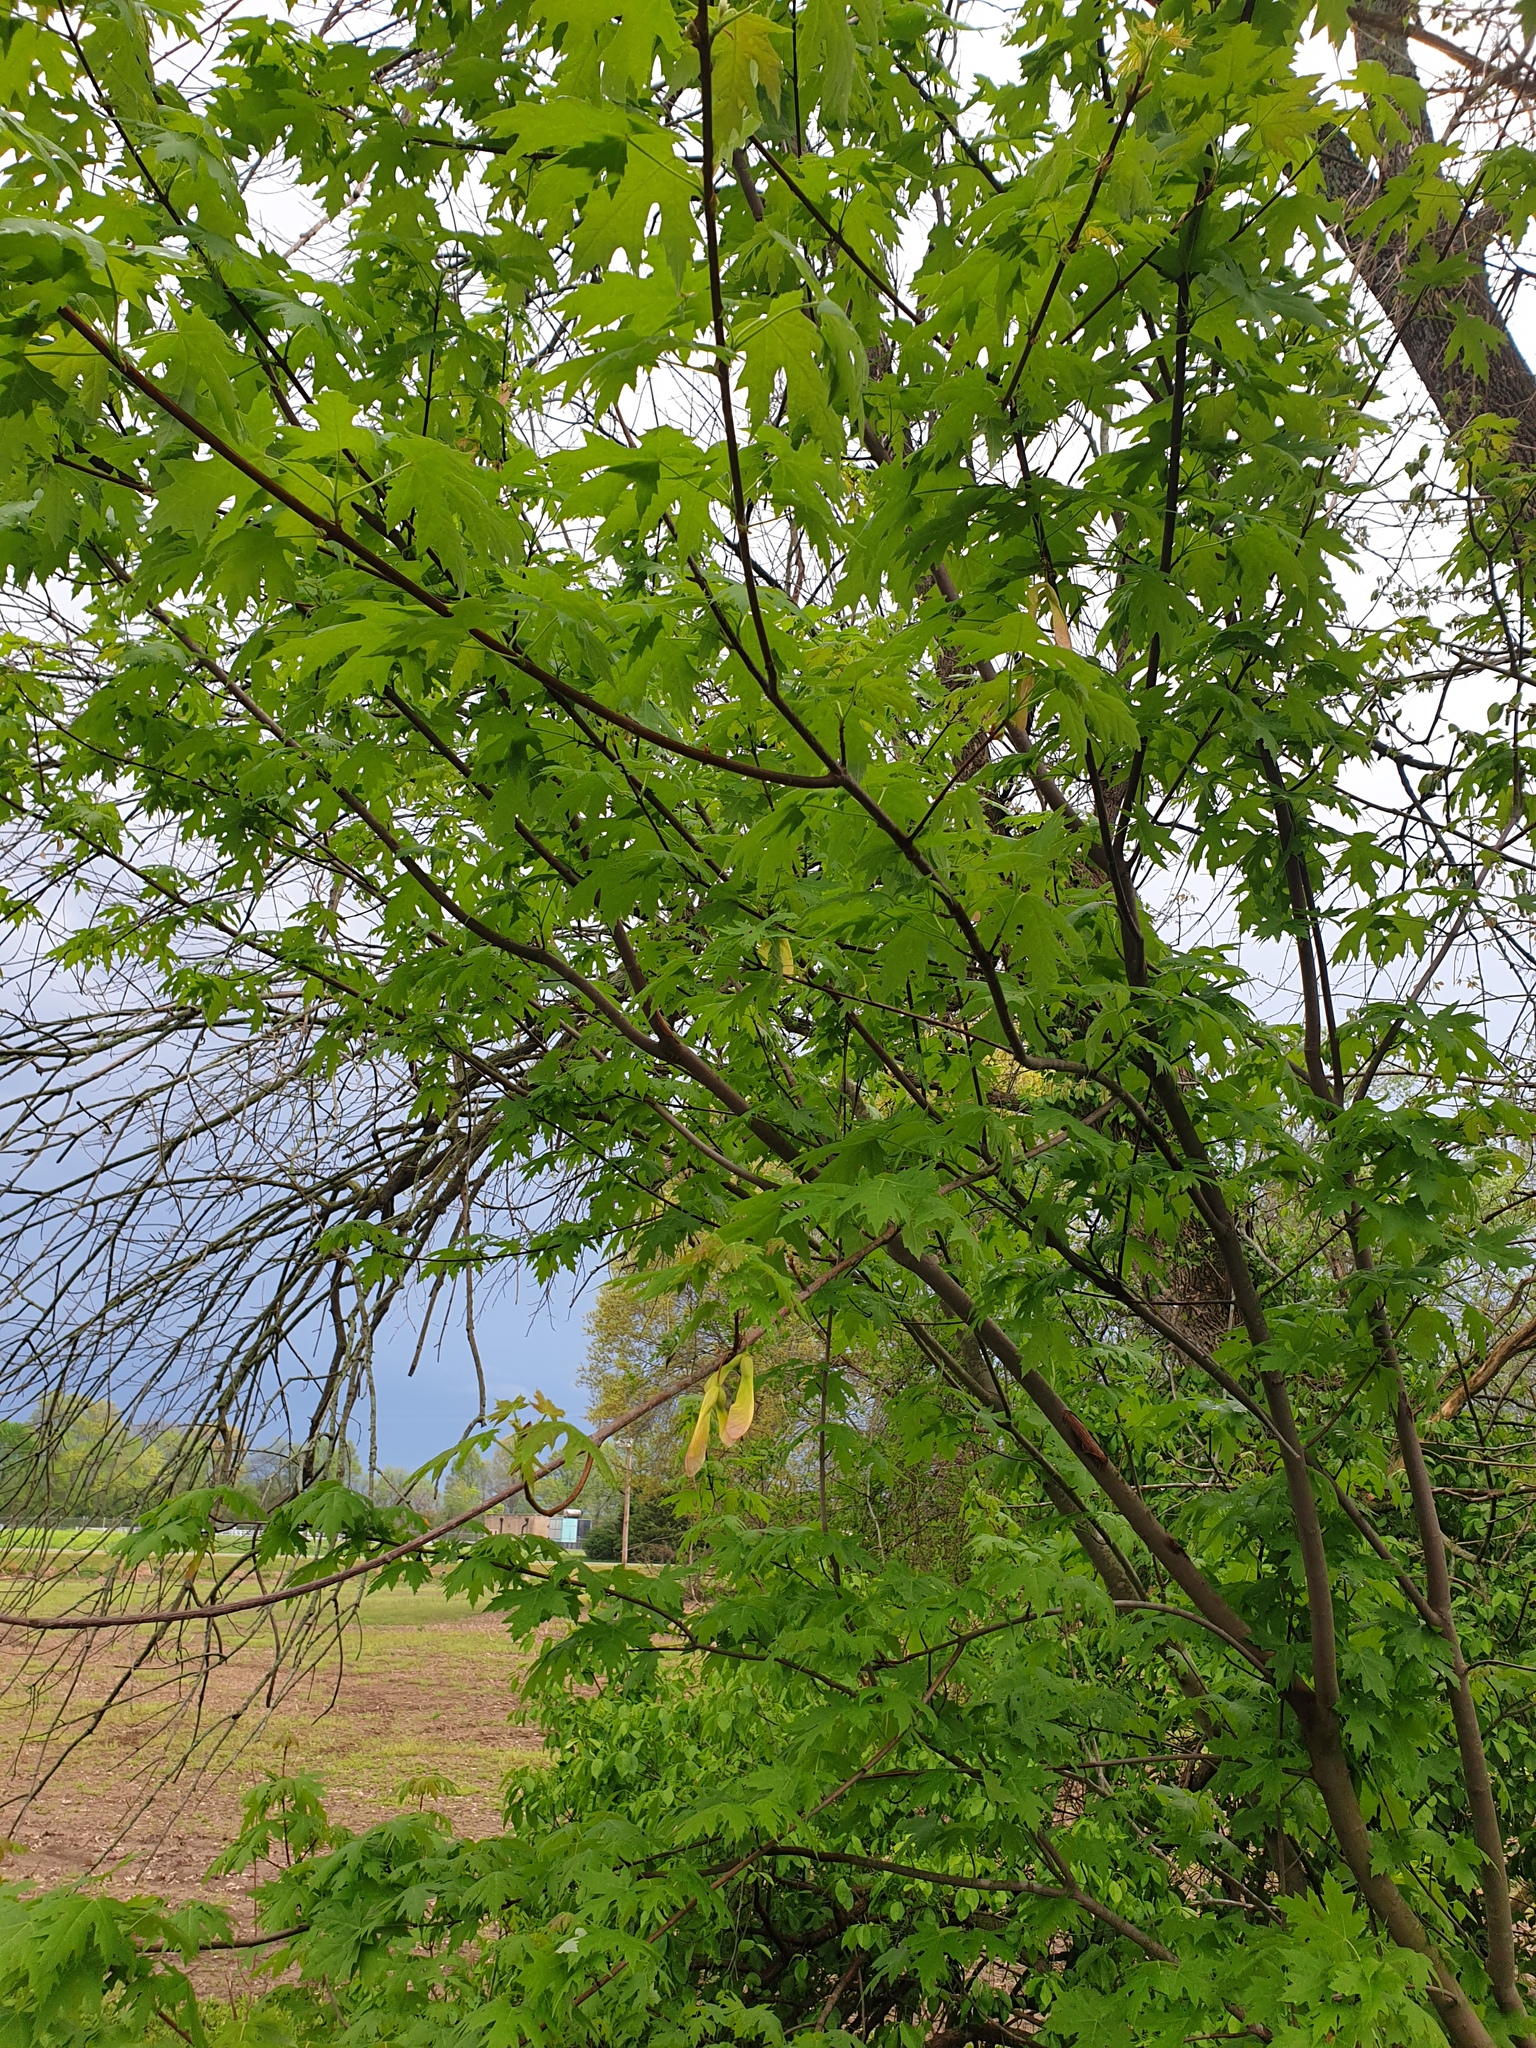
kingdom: Plantae
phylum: Tracheophyta
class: Magnoliopsida
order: Sapindales
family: Sapindaceae
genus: Acer
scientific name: Acer saccharinum
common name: Silver maple
